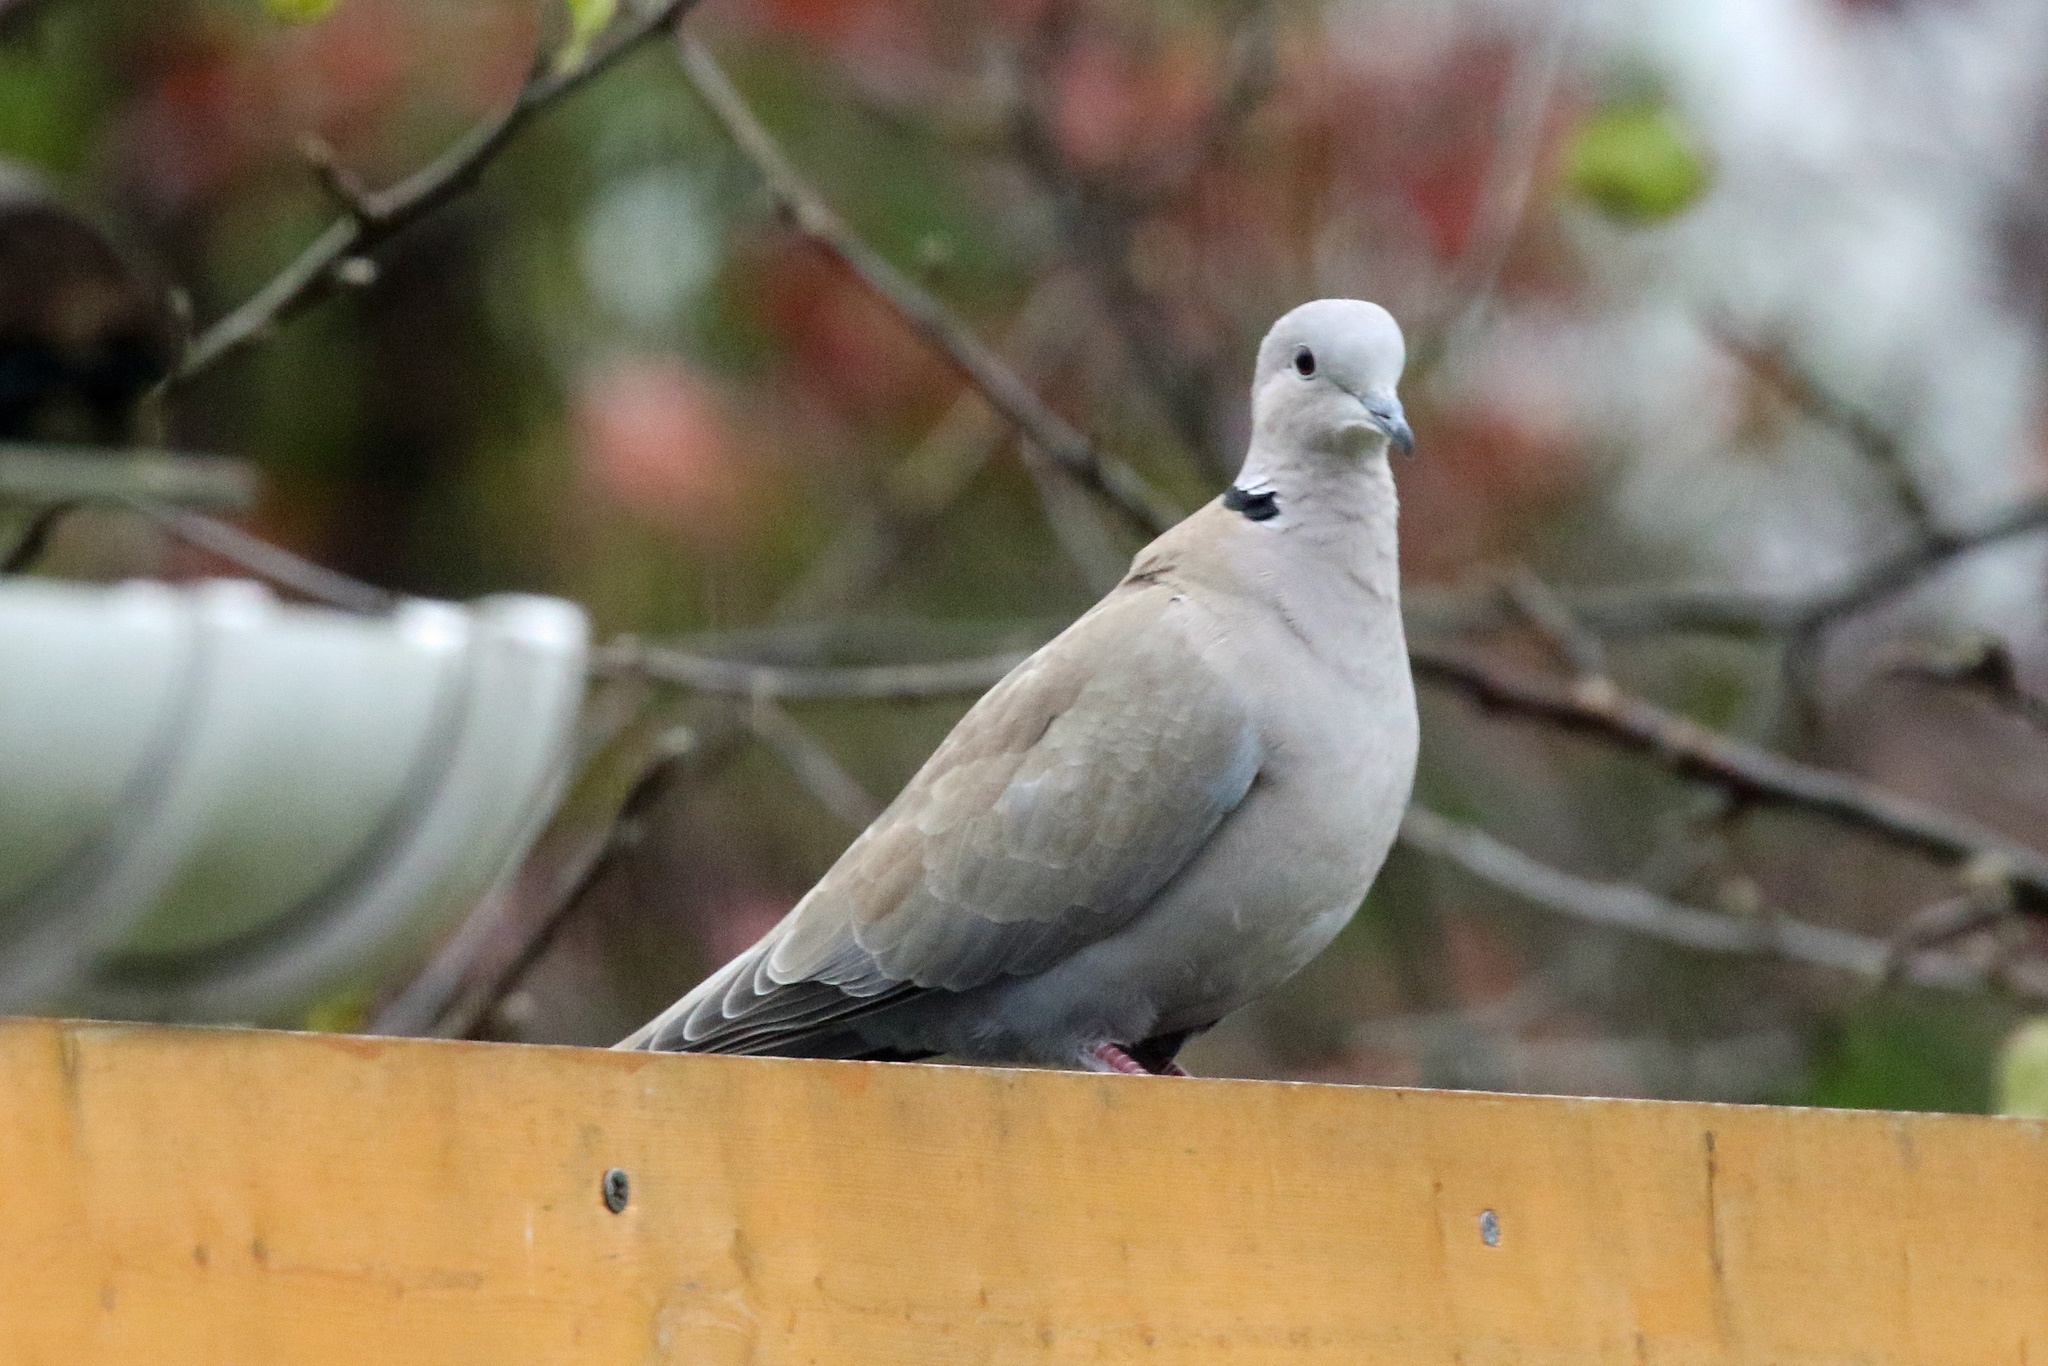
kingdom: Animalia
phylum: Chordata
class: Aves
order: Columbiformes
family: Columbidae
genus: Streptopelia
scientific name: Streptopelia decaocto
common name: Eurasian collared dove
